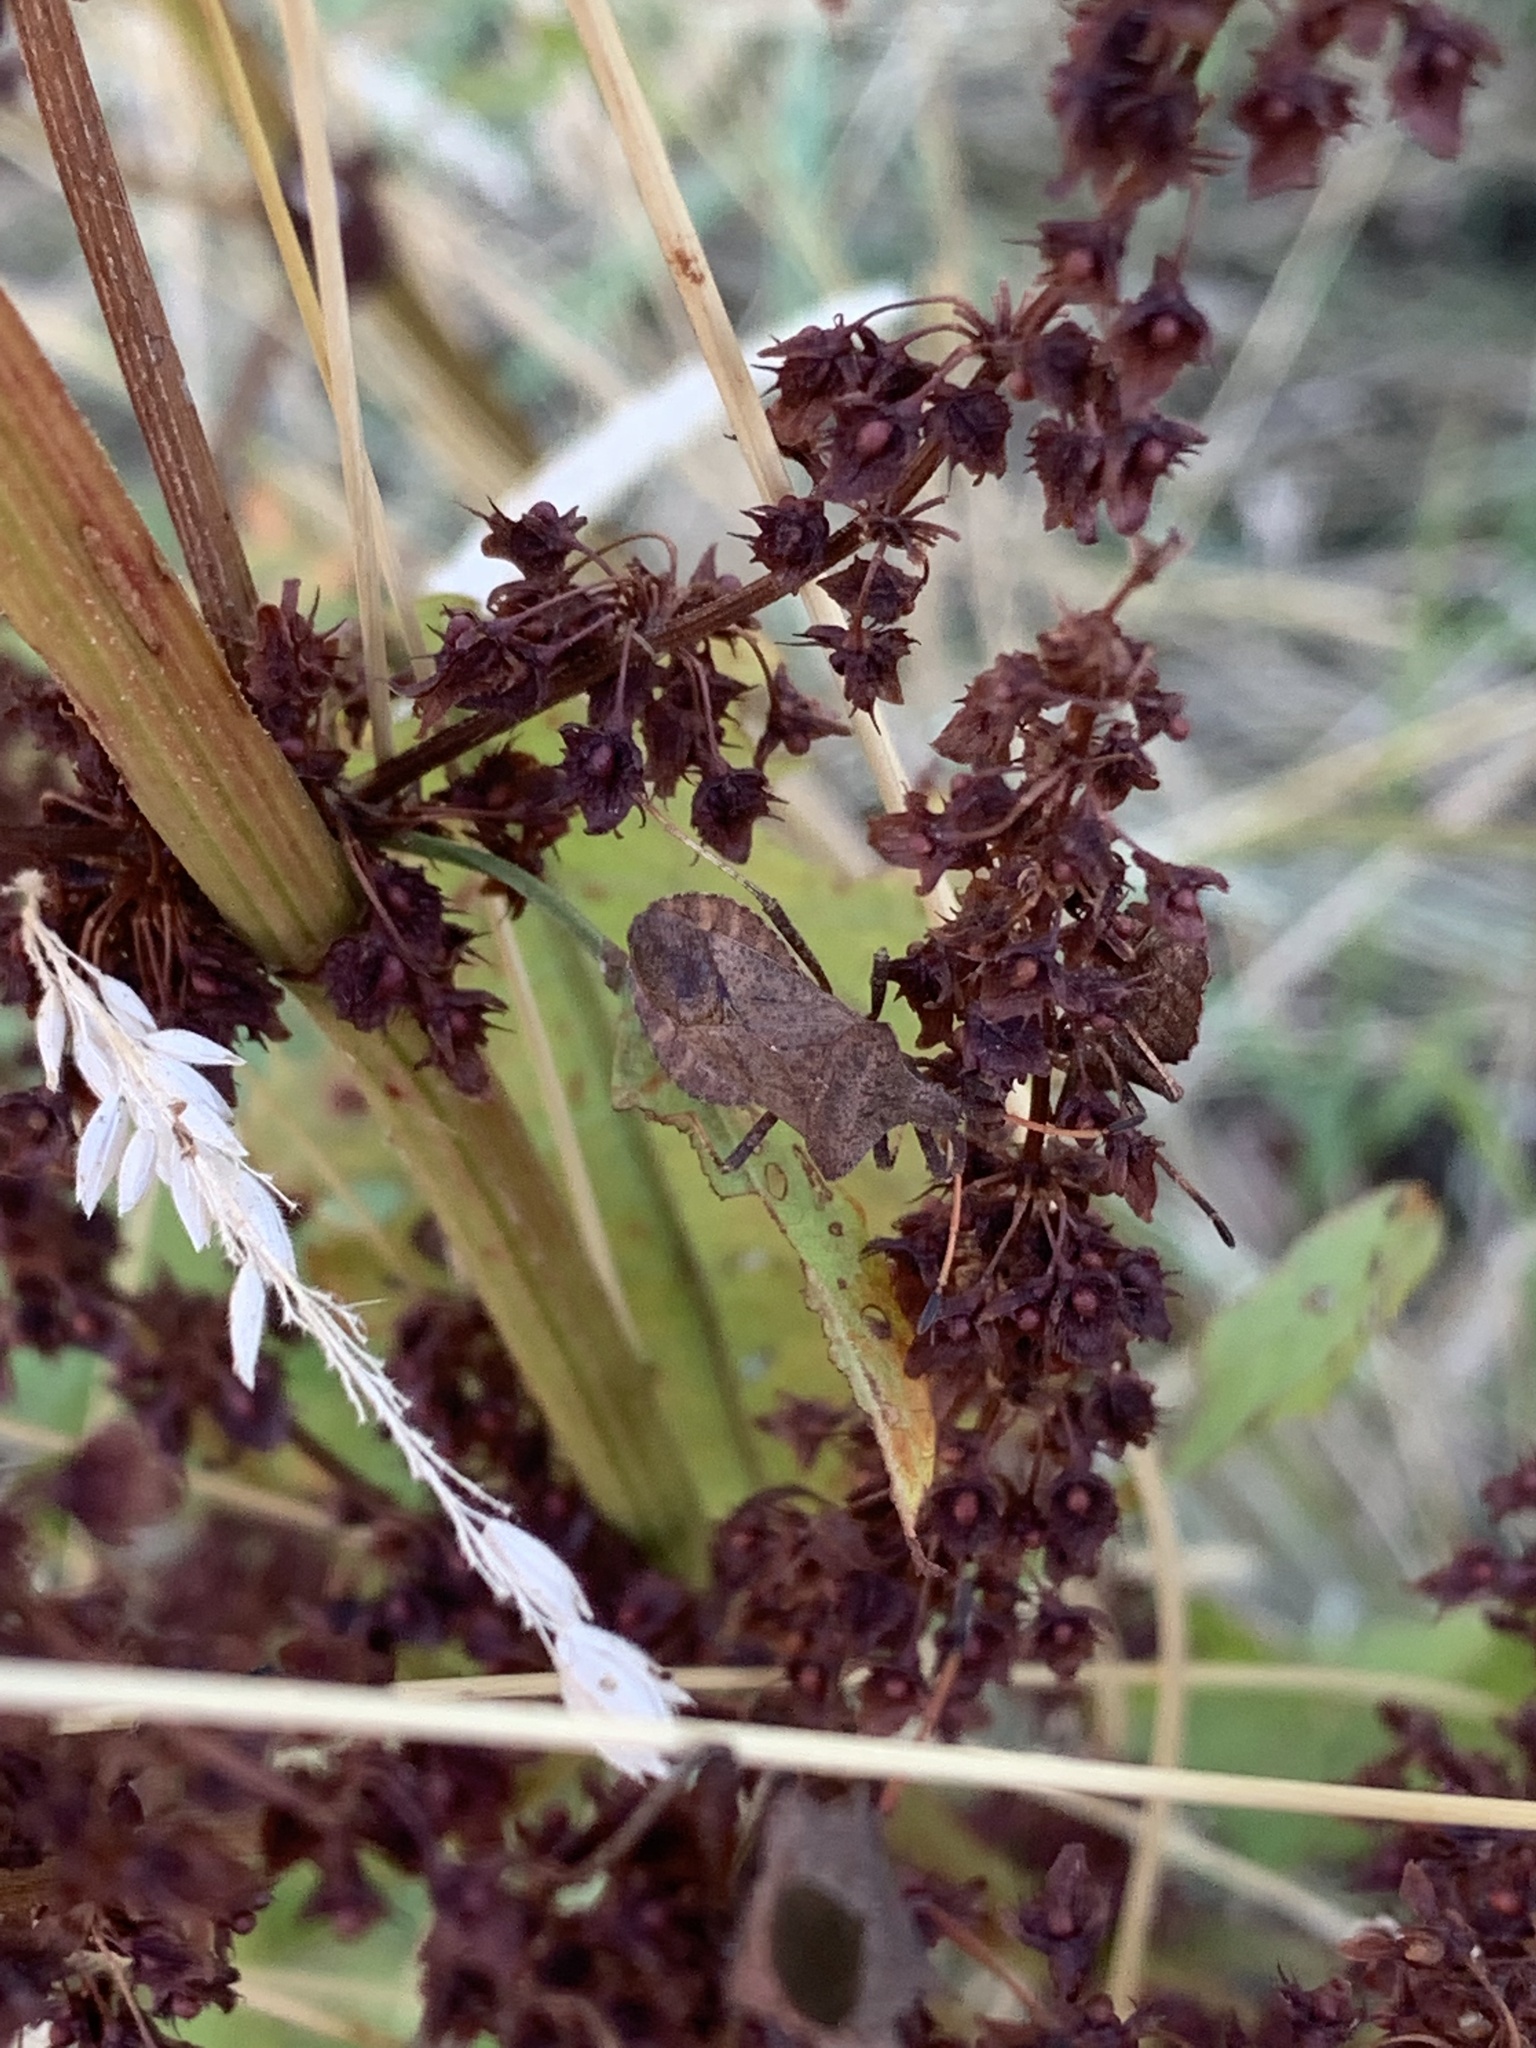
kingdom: Animalia
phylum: Arthropoda
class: Insecta
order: Hemiptera
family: Coreidae
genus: Coreus
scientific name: Coreus marginatus
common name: Dock bug
